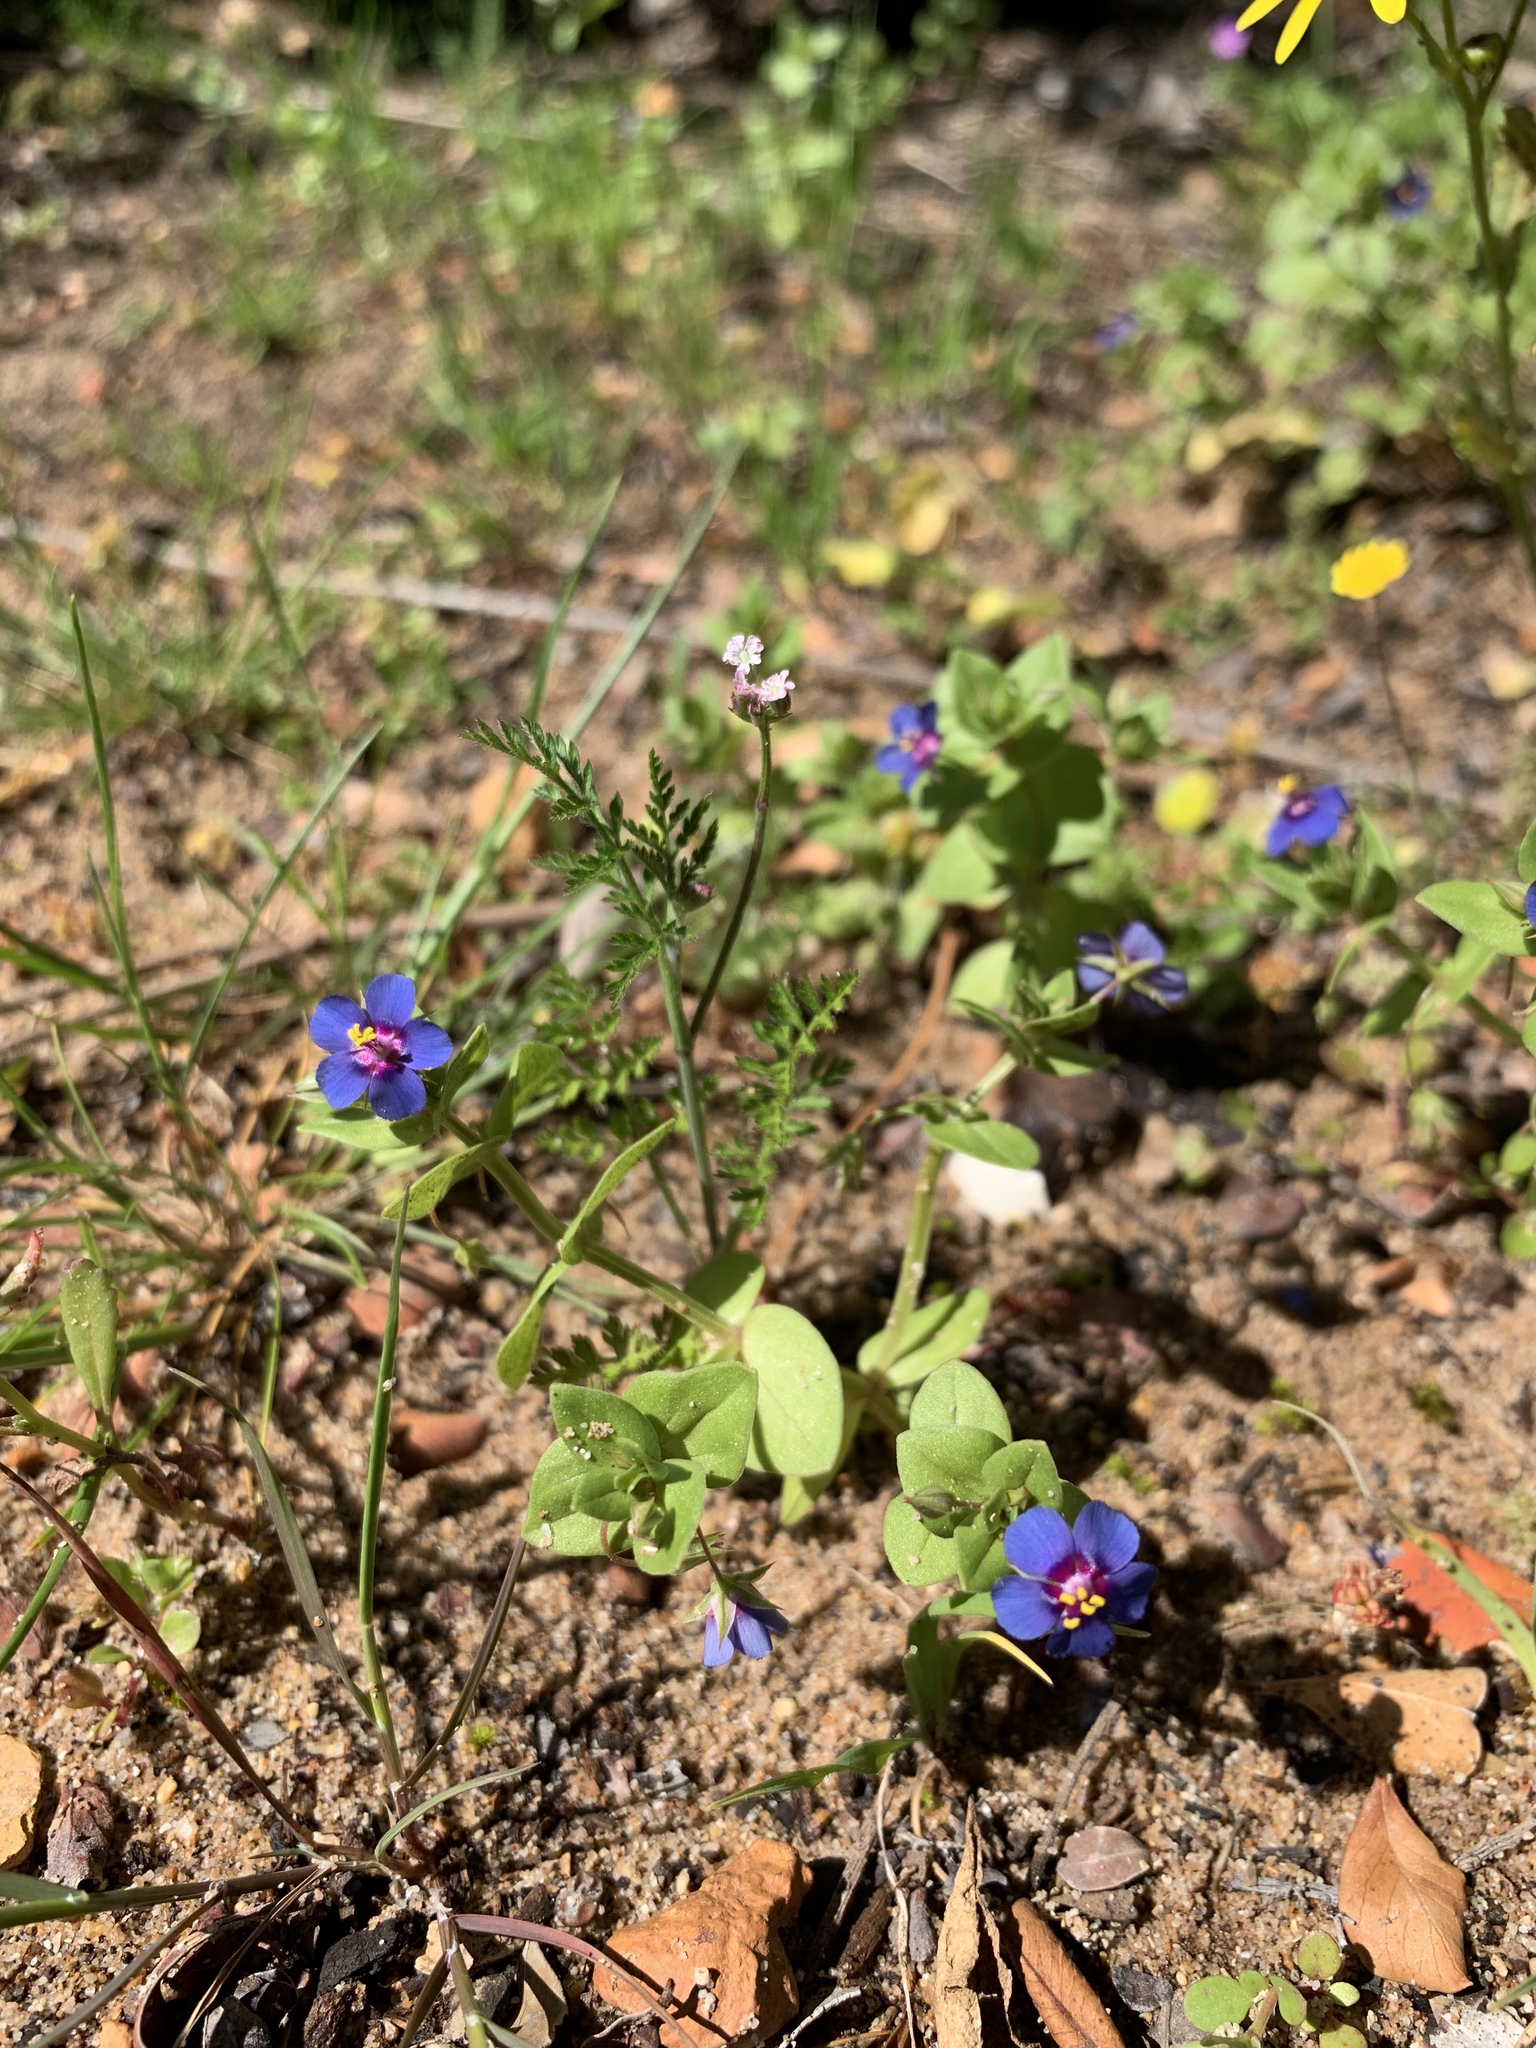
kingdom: Plantae
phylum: Tracheophyta
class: Magnoliopsida
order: Ericales
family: Primulaceae
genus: Lysimachia
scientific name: Lysimachia loeflingii
